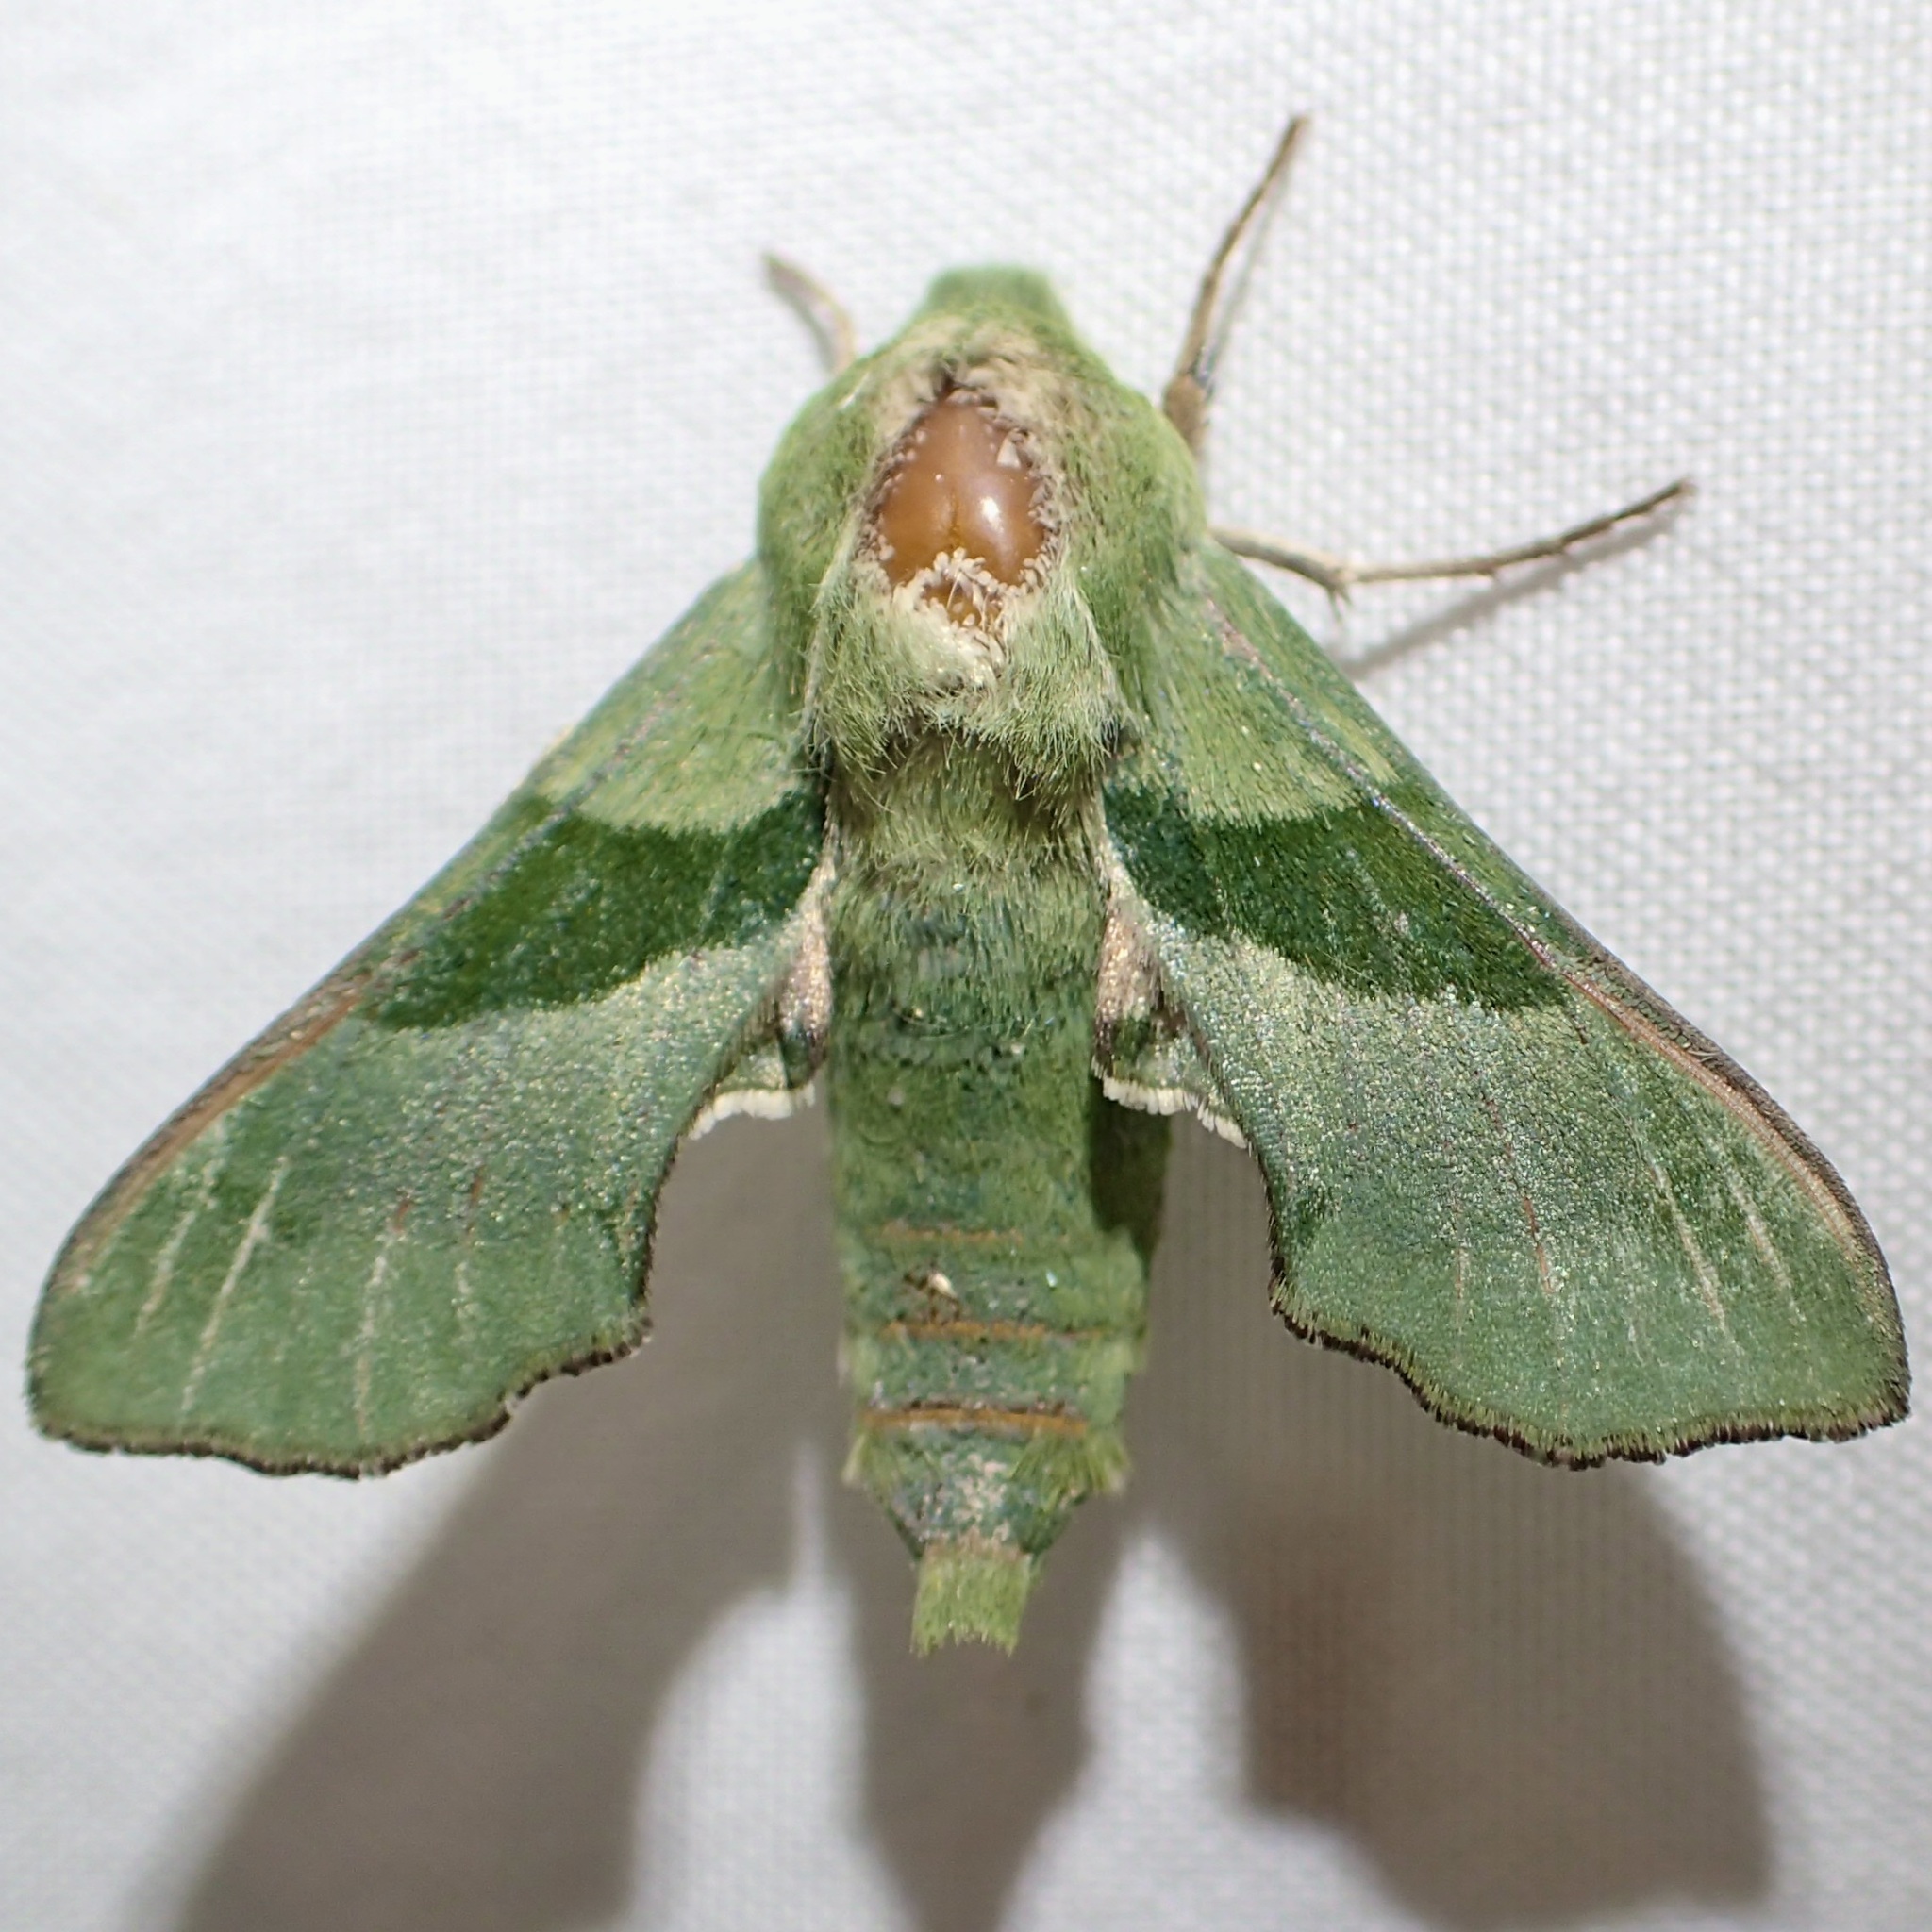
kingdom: Animalia
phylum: Arthropoda
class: Insecta
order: Lepidoptera
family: Sphingidae
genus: Proserpinus
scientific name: Proserpinus terlooii
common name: Terloo's sphinx
